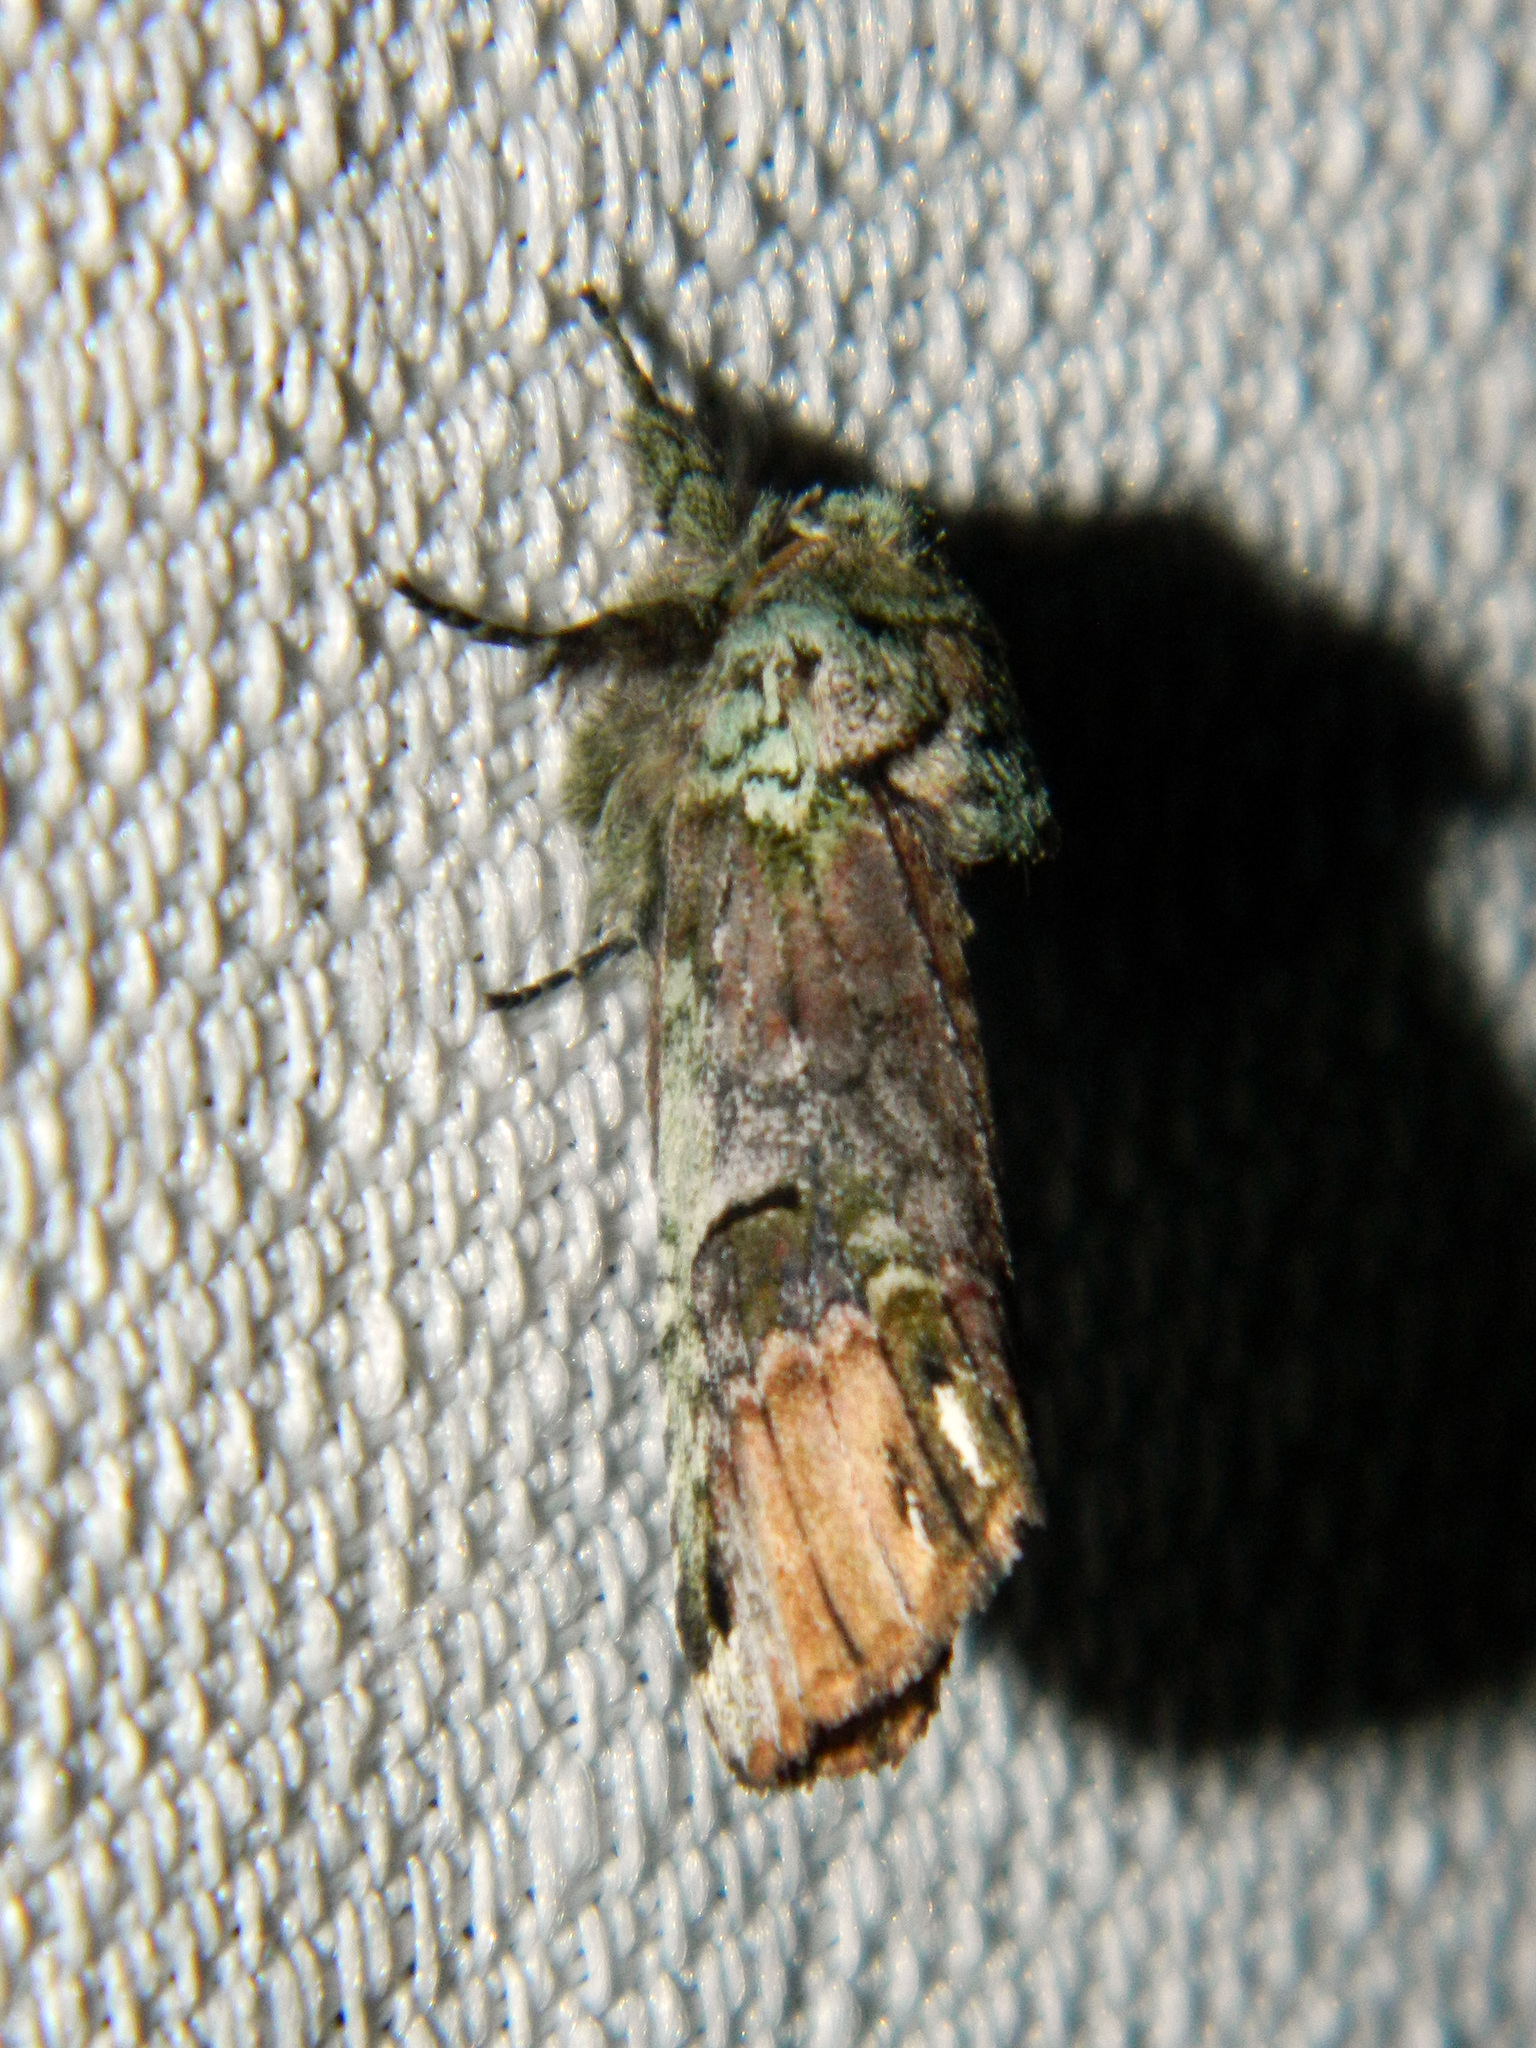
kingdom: Animalia
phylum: Arthropoda
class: Insecta
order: Lepidoptera
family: Notodontidae
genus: Schizura
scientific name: Schizura
